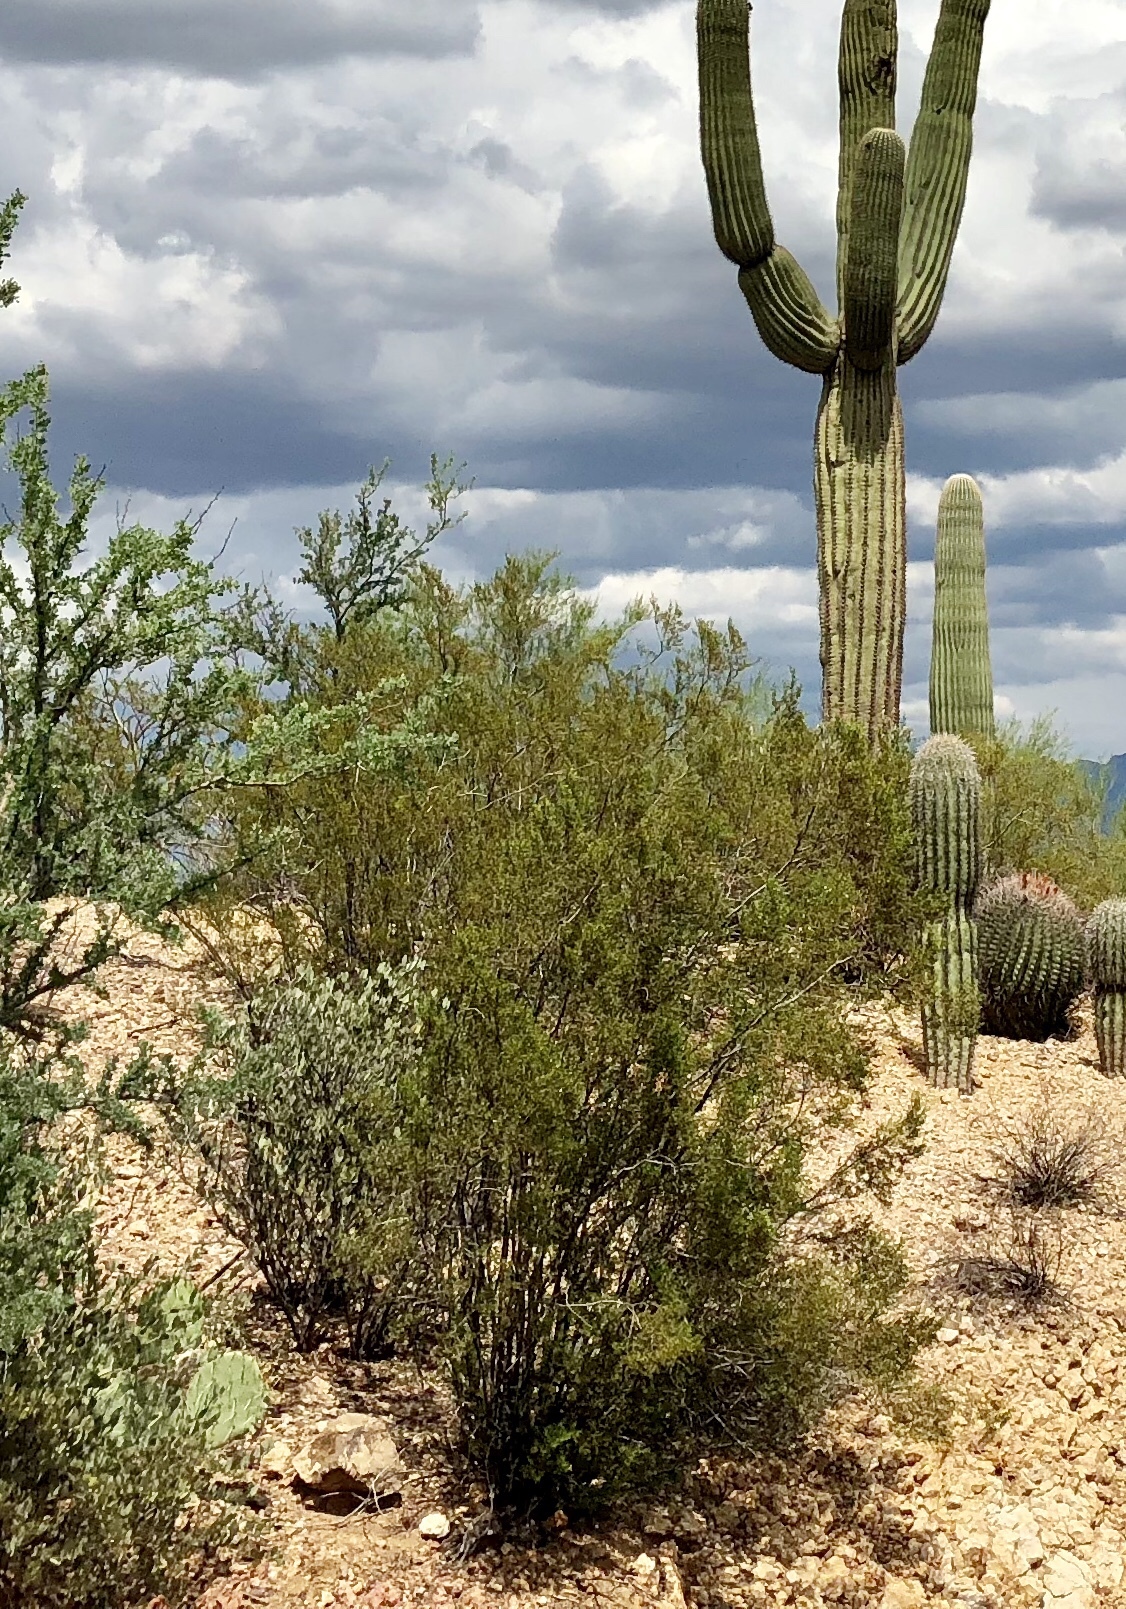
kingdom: Plantae
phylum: Tracheophyta
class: Magnoliopsida
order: Zygophyllales
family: Zygophyllaceae
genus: Larrea
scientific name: Larrea tridentata
